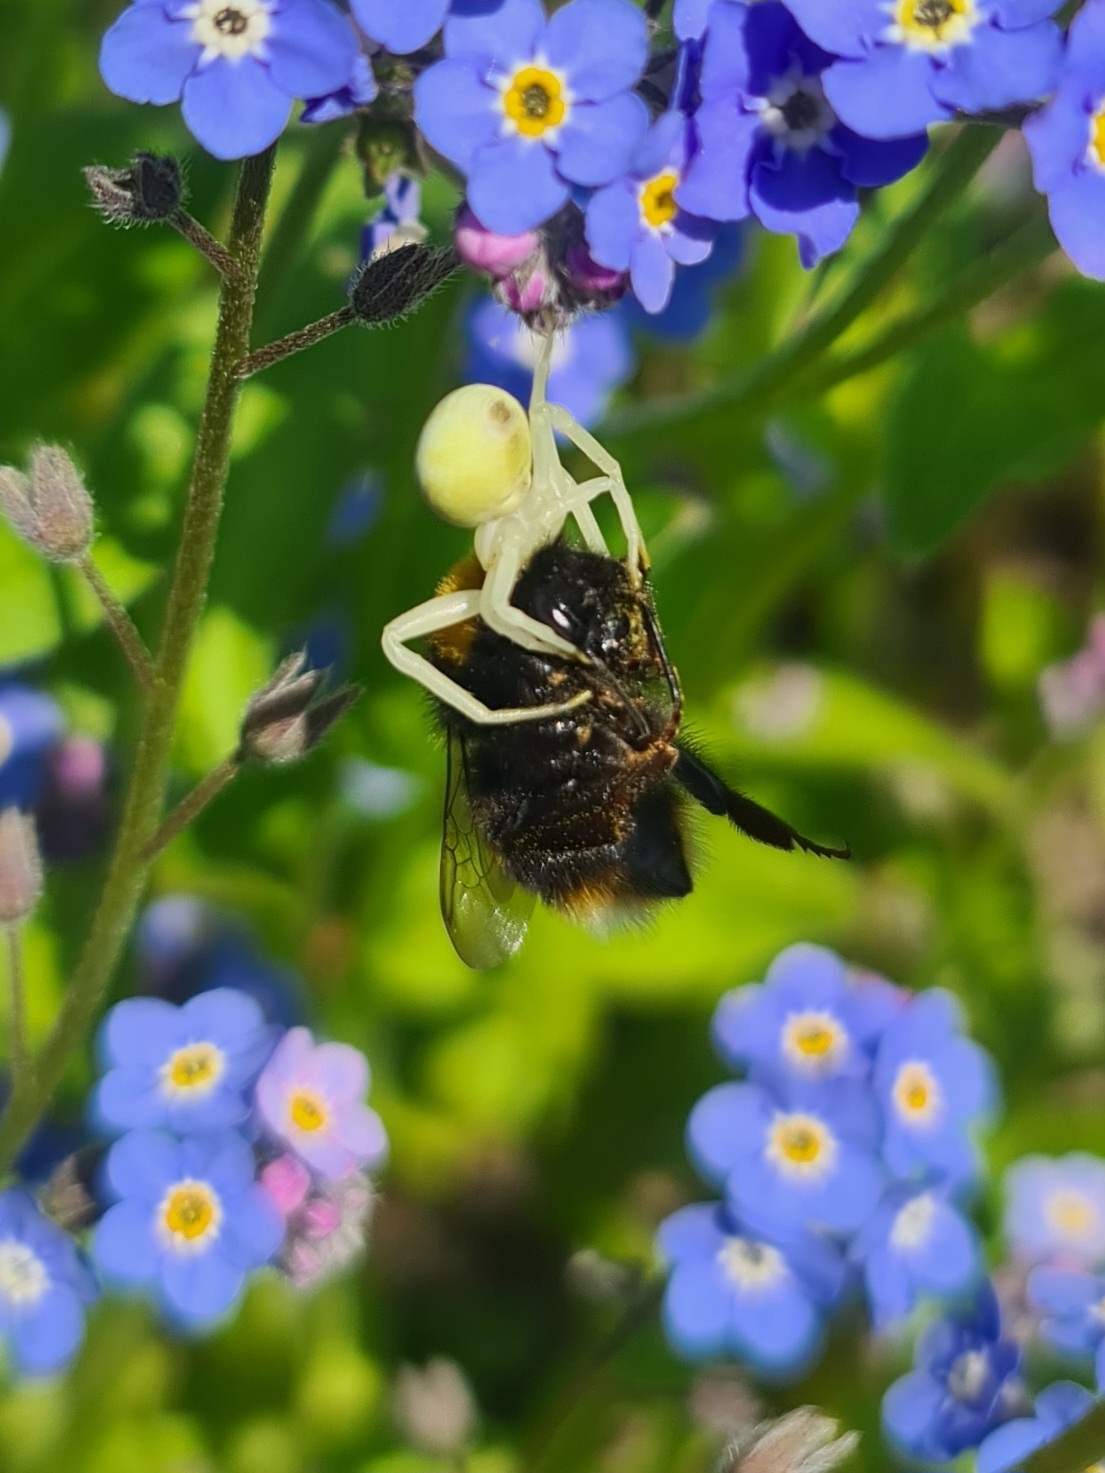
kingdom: Animalia
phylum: Arthropoda
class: Arachnida
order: Araneae
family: Thomisidae
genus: Misumena
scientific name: Misumena vatia
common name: Goldenrod crab spider
